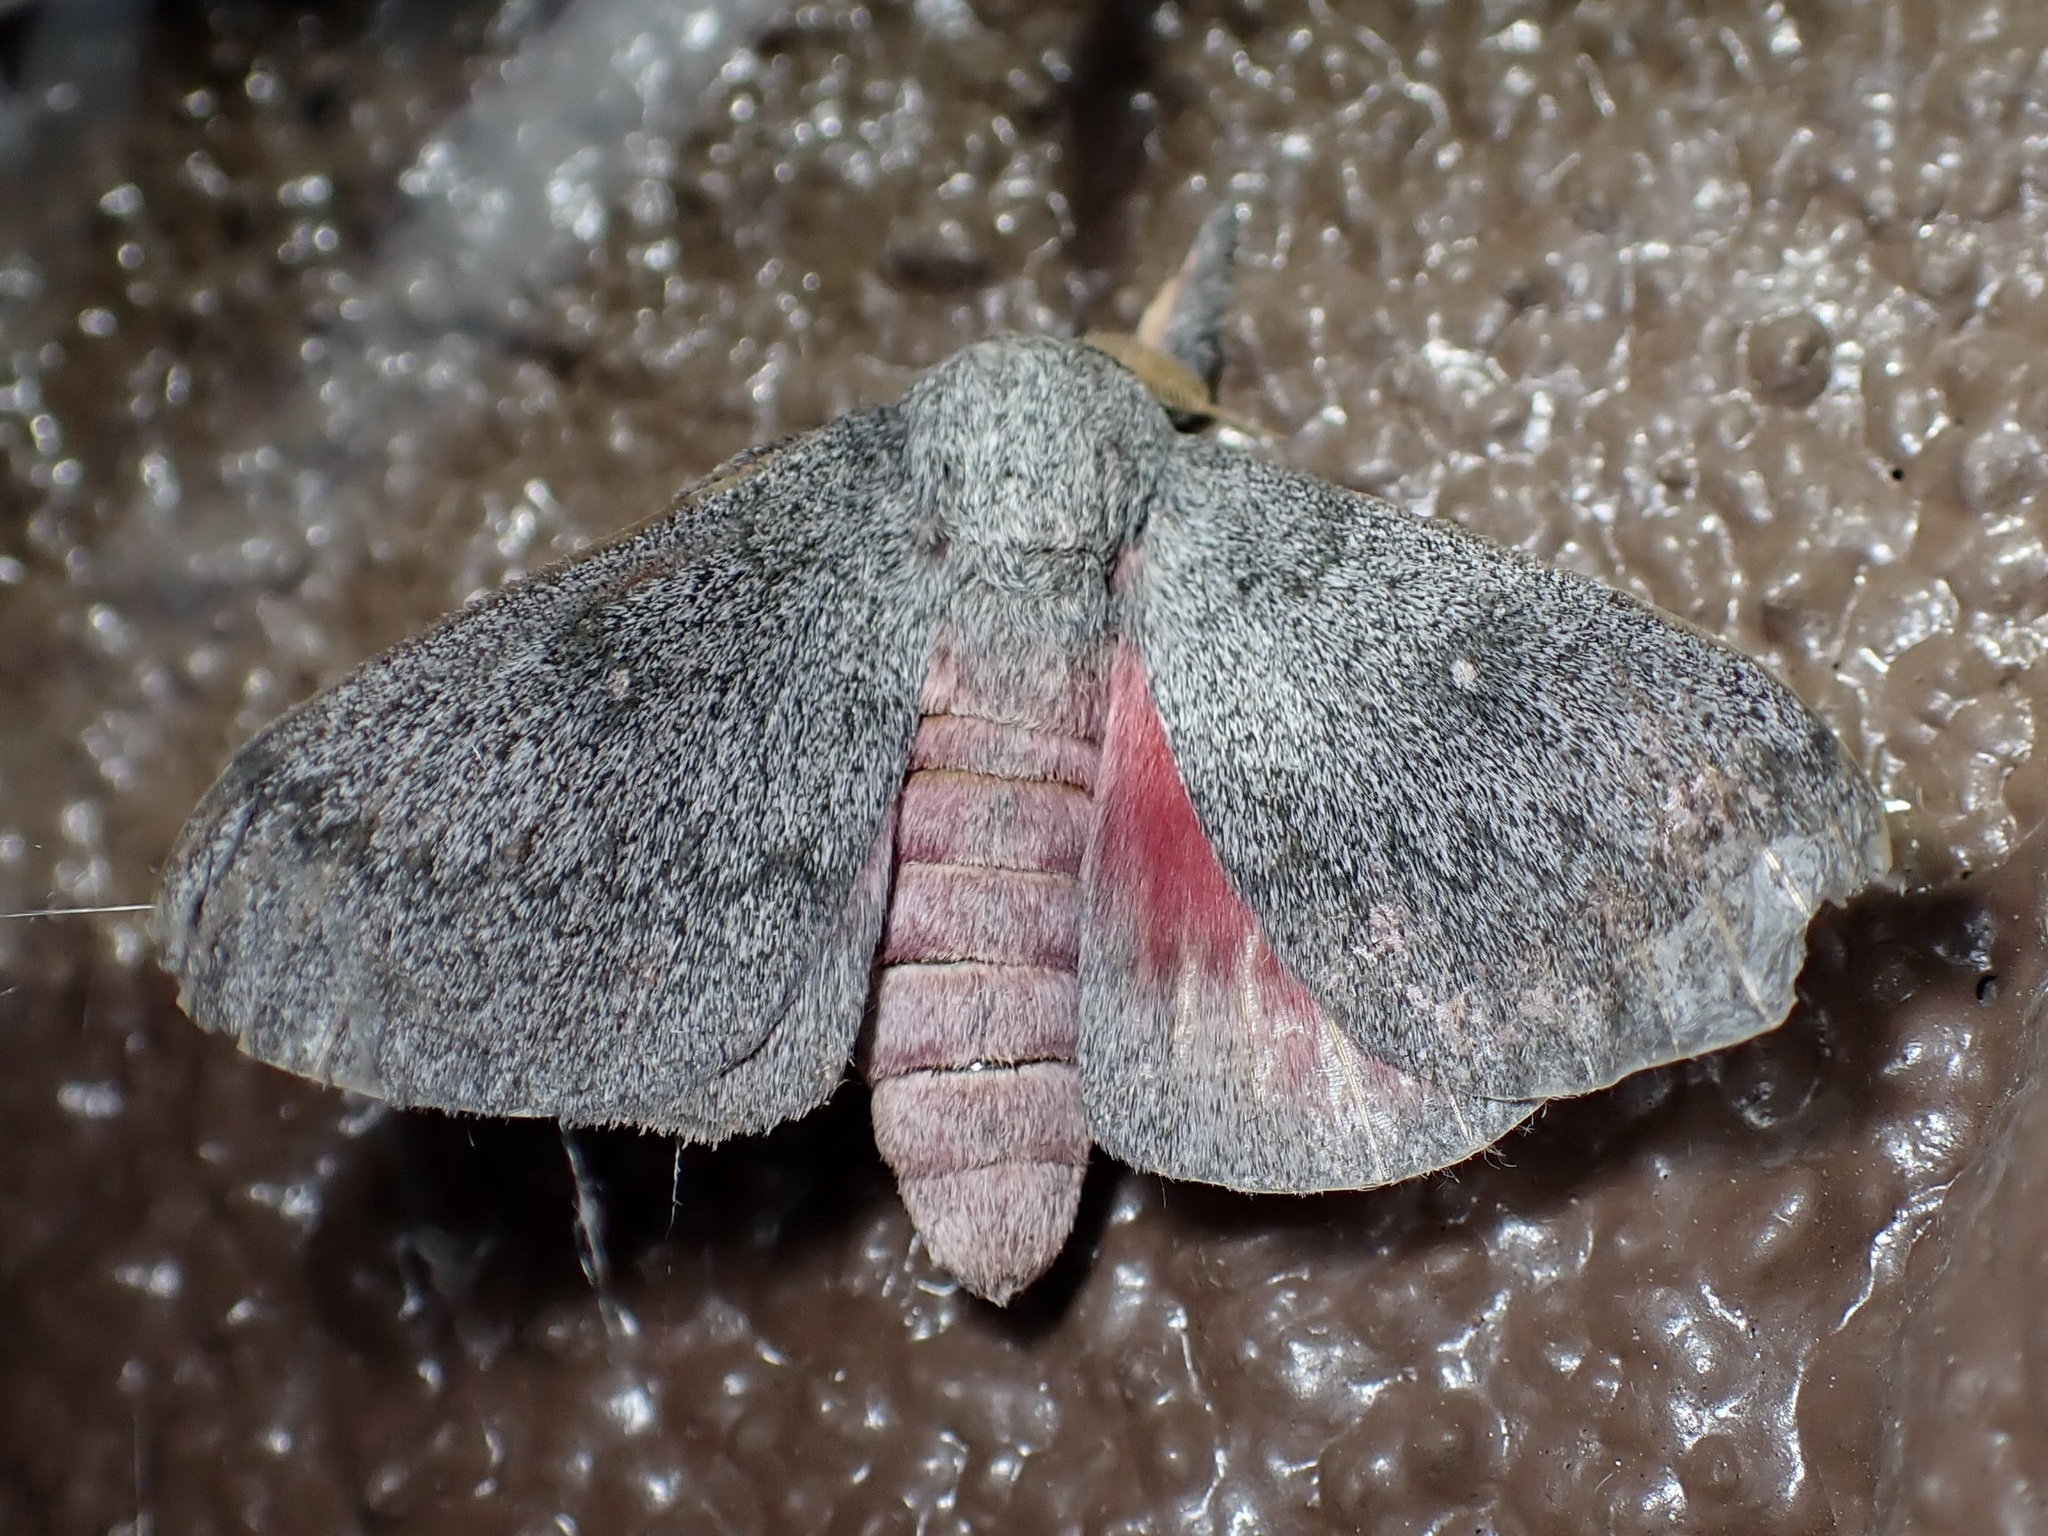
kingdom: Animalia
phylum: Arthropoda
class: Insecta
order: Lepidoptera
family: Saturniidae
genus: Syssphinx
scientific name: Syssphinx hubbardi
